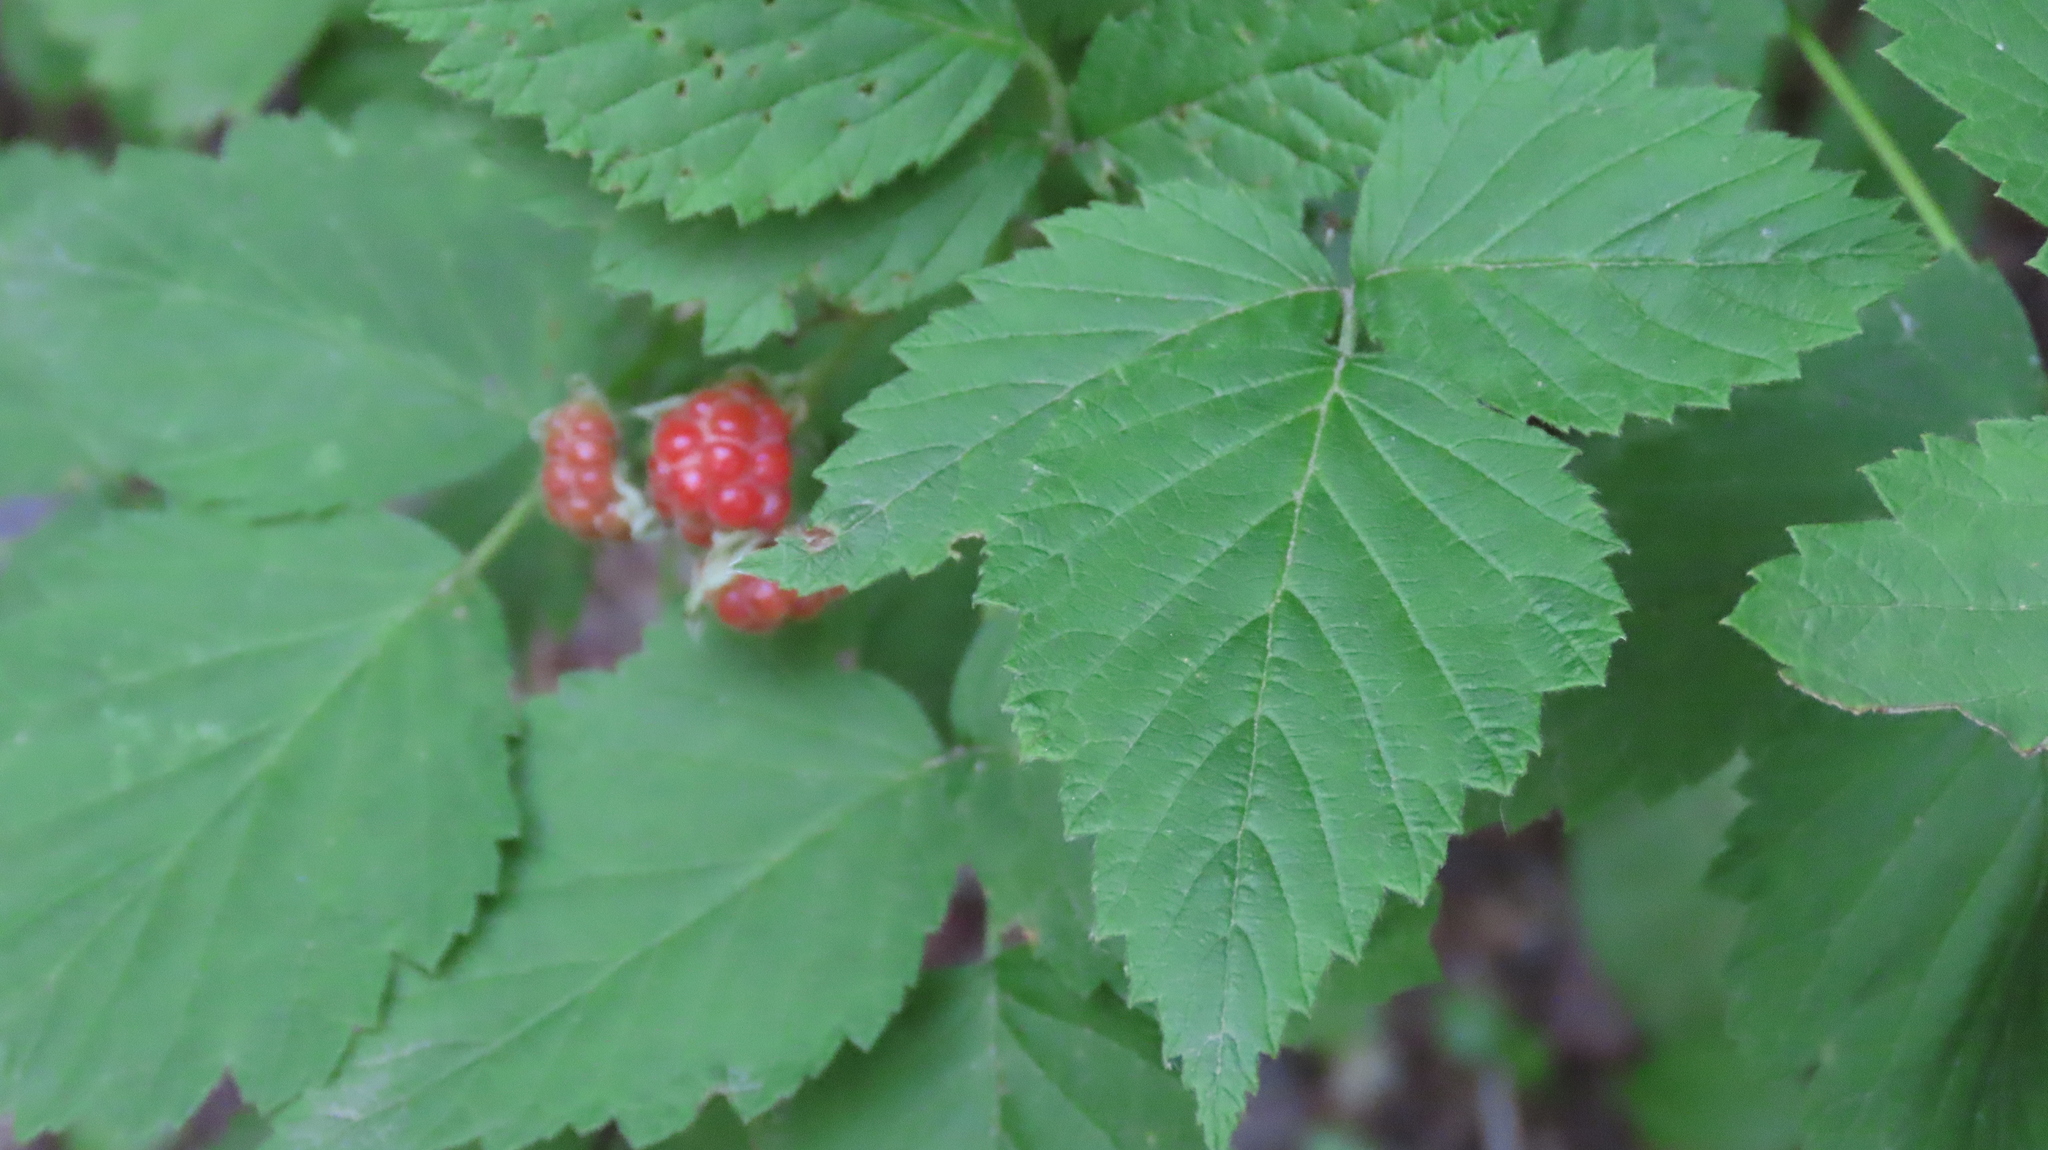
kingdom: Plantae
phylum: Tracheophyta
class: Magnoliopsida
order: Rosales
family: Rosaceae
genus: Rubus
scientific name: Rubus occidentalis
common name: Black raspberry
